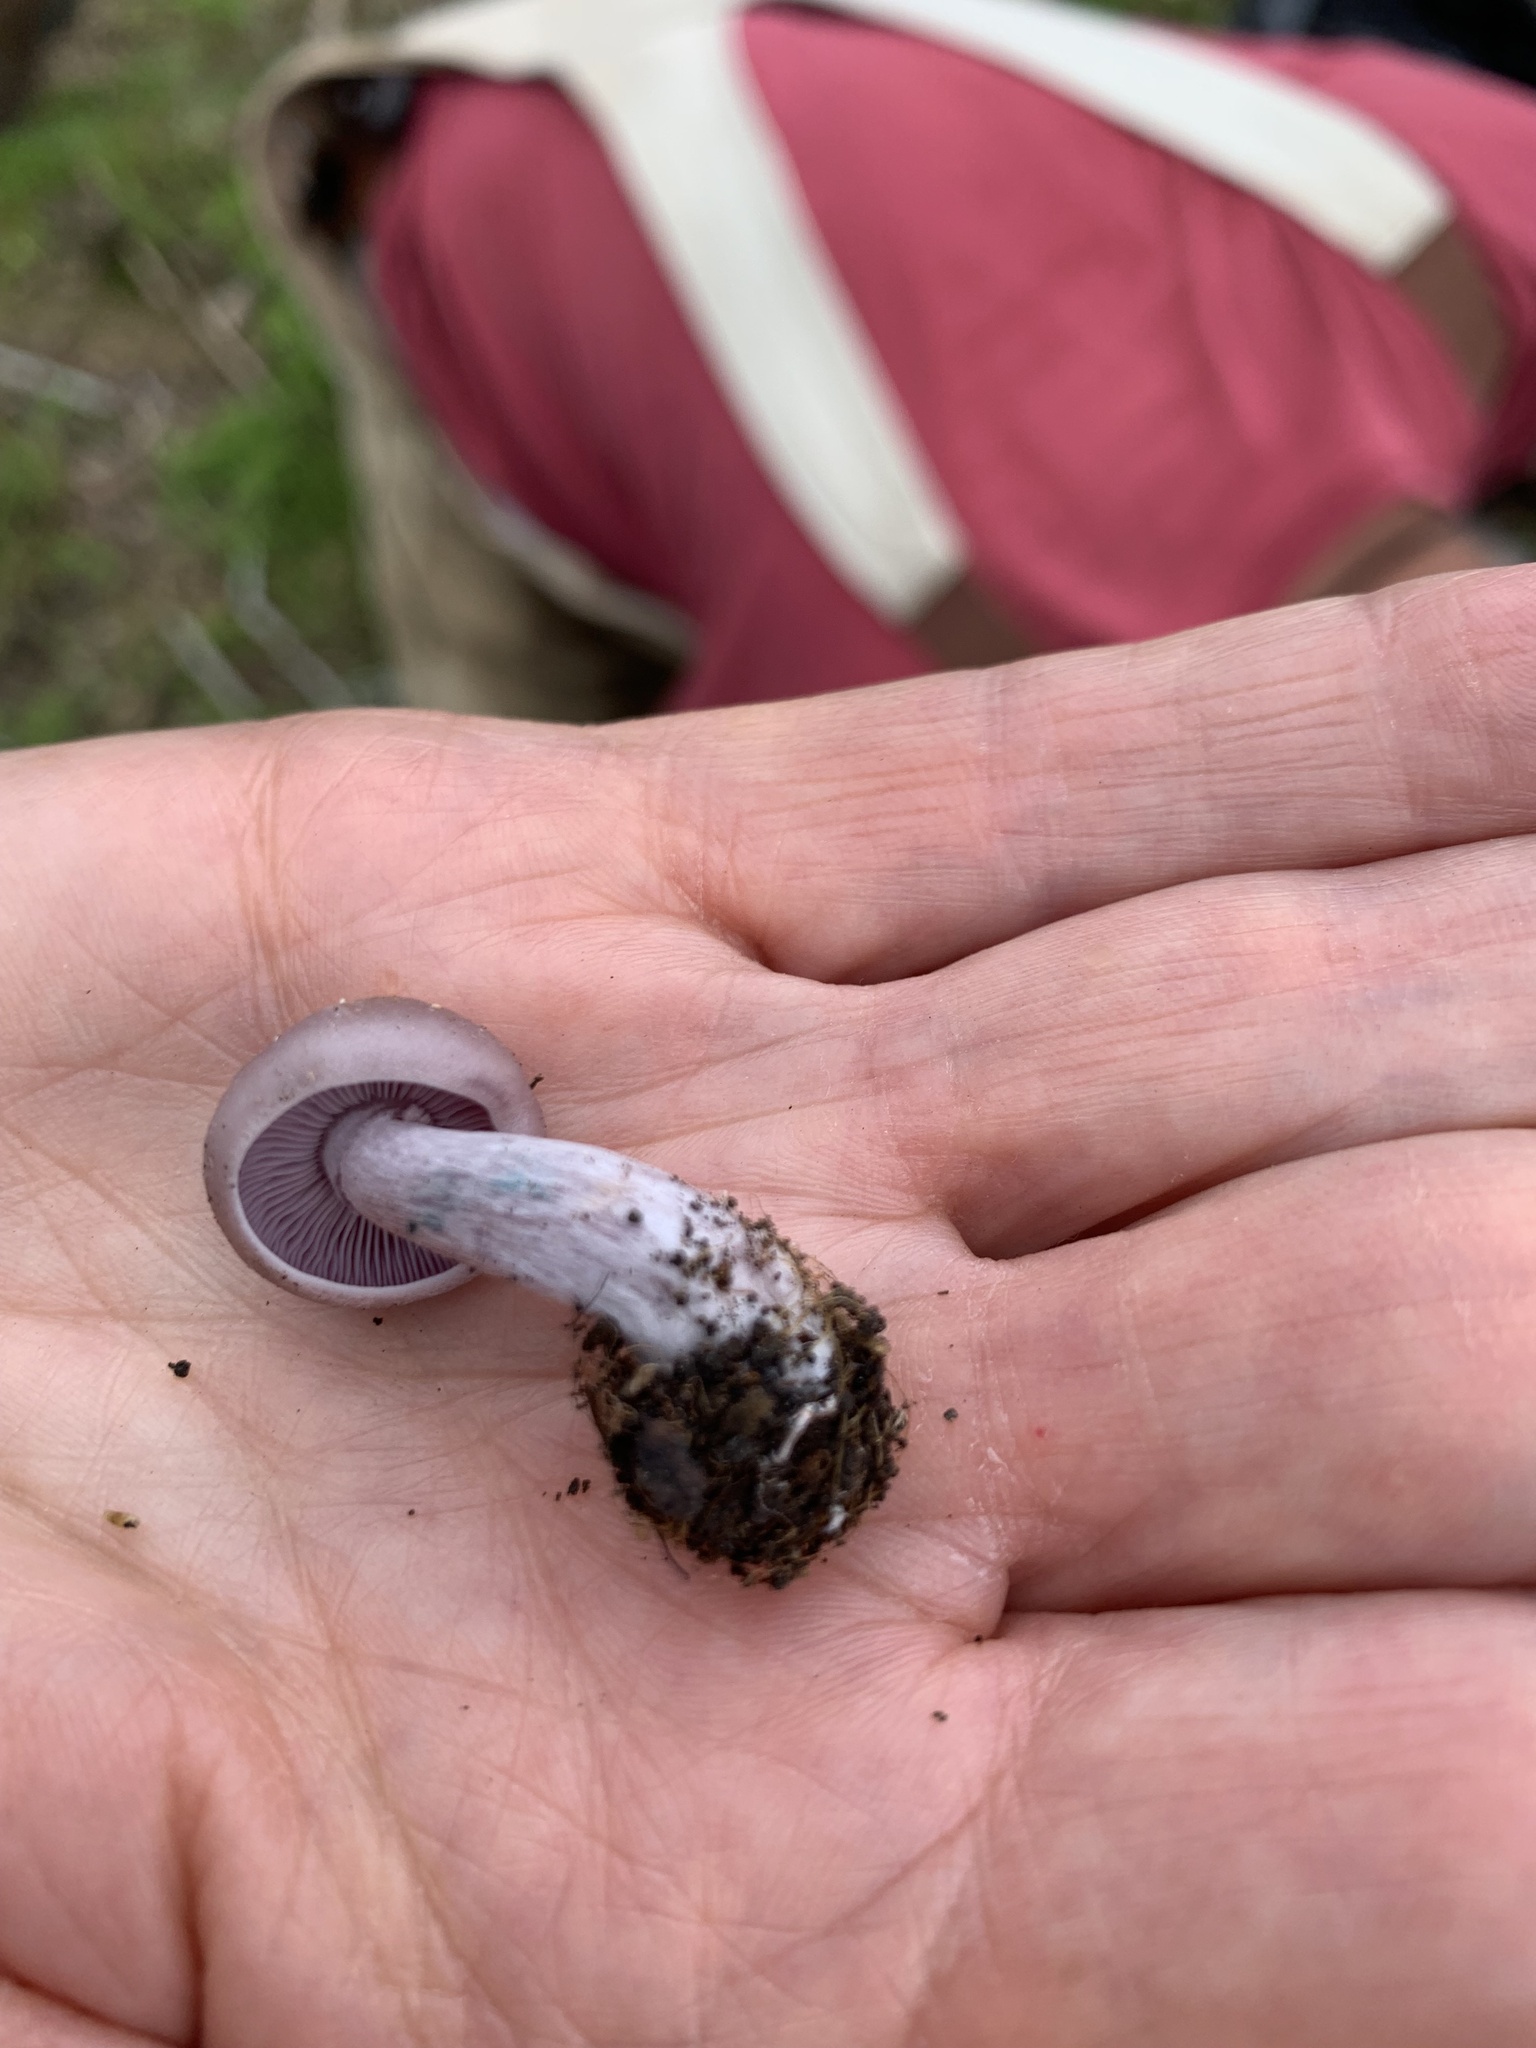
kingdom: Fungi
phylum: Basidiomycota
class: Agaricomycetes
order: Agaricales
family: Tricholomataceae
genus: Collybia
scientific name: Collybia
